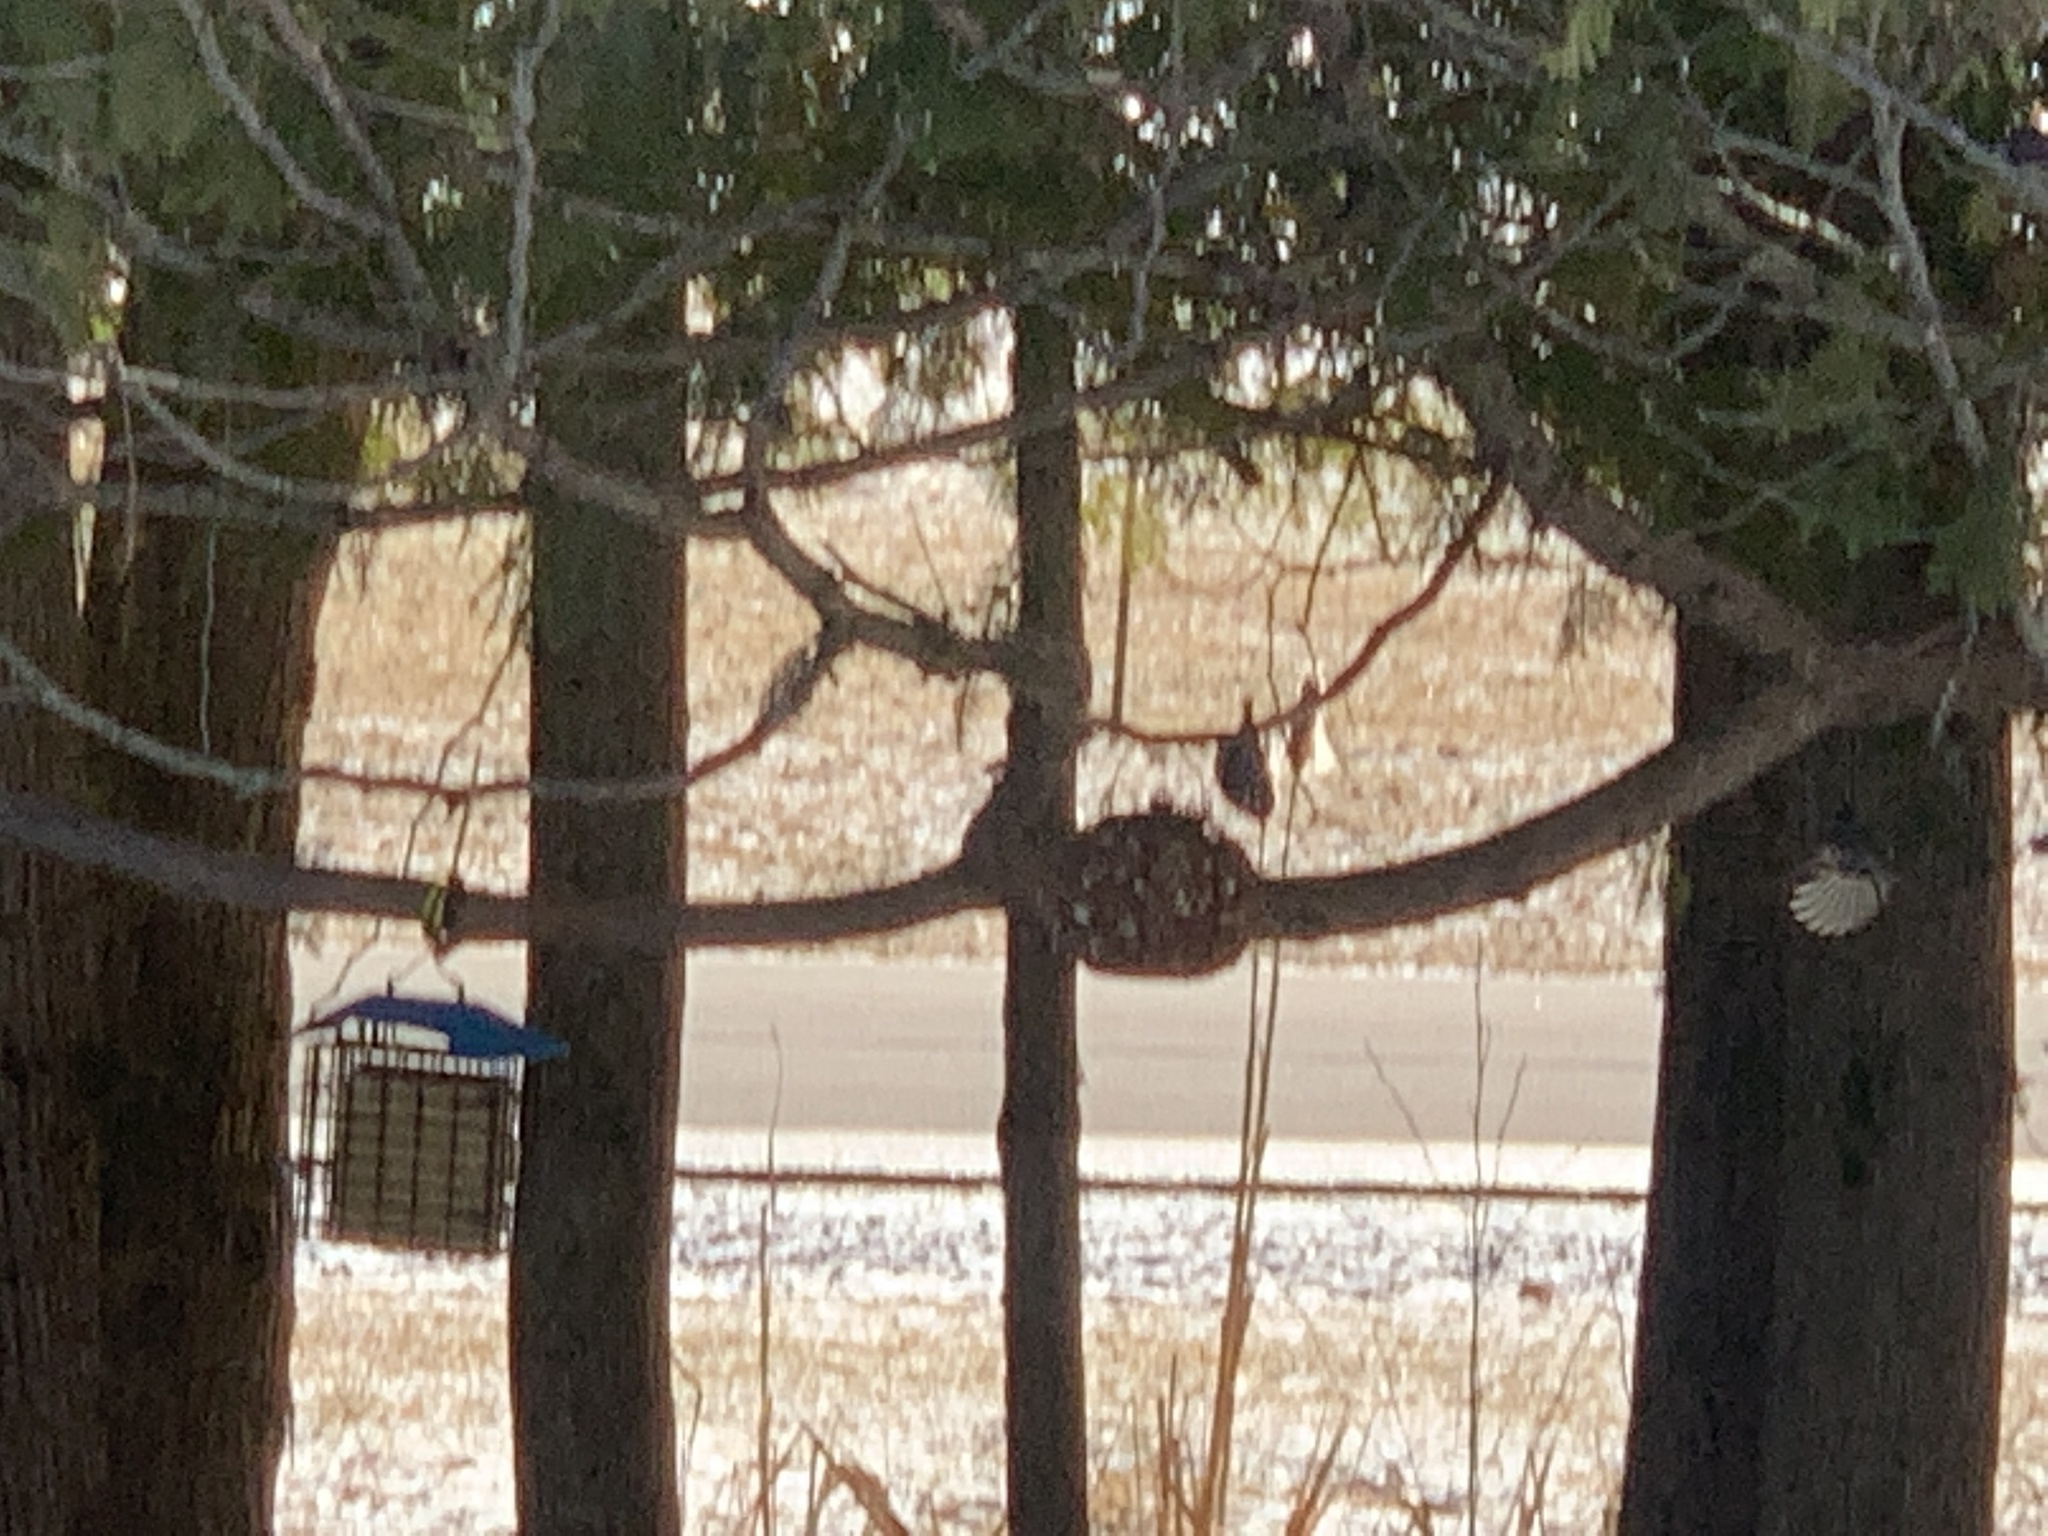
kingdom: Animalia
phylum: Chordata
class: Aves
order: Passeriformes
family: Sittidae
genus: Sitta
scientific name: Sitta canadensis
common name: Red-breasted nuthatch
